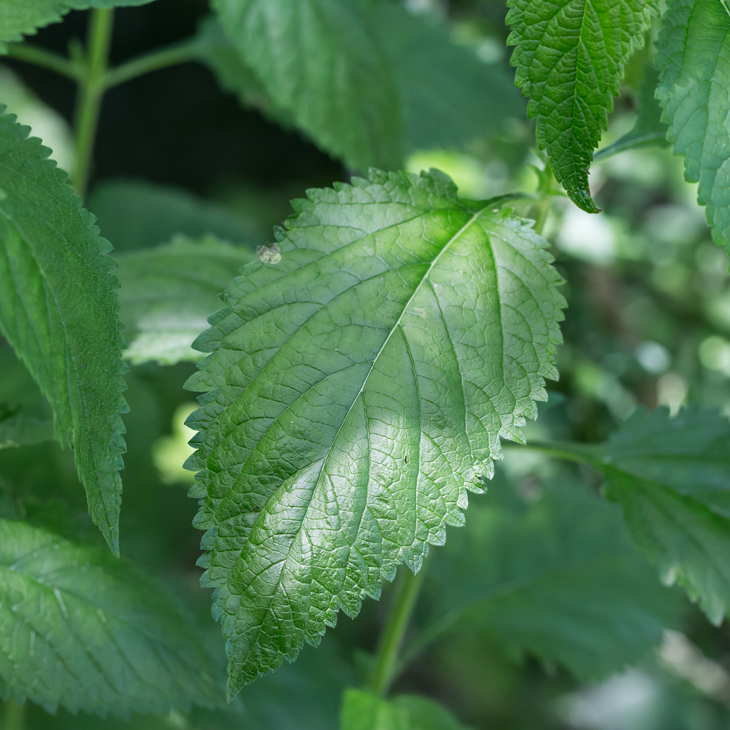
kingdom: Plantae
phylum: Tracheophyta
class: Magnoliopsida
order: Lamiales
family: Verbenaceae
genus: Verbena
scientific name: Verbena urticifolia
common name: Nettle-leaved vervain
